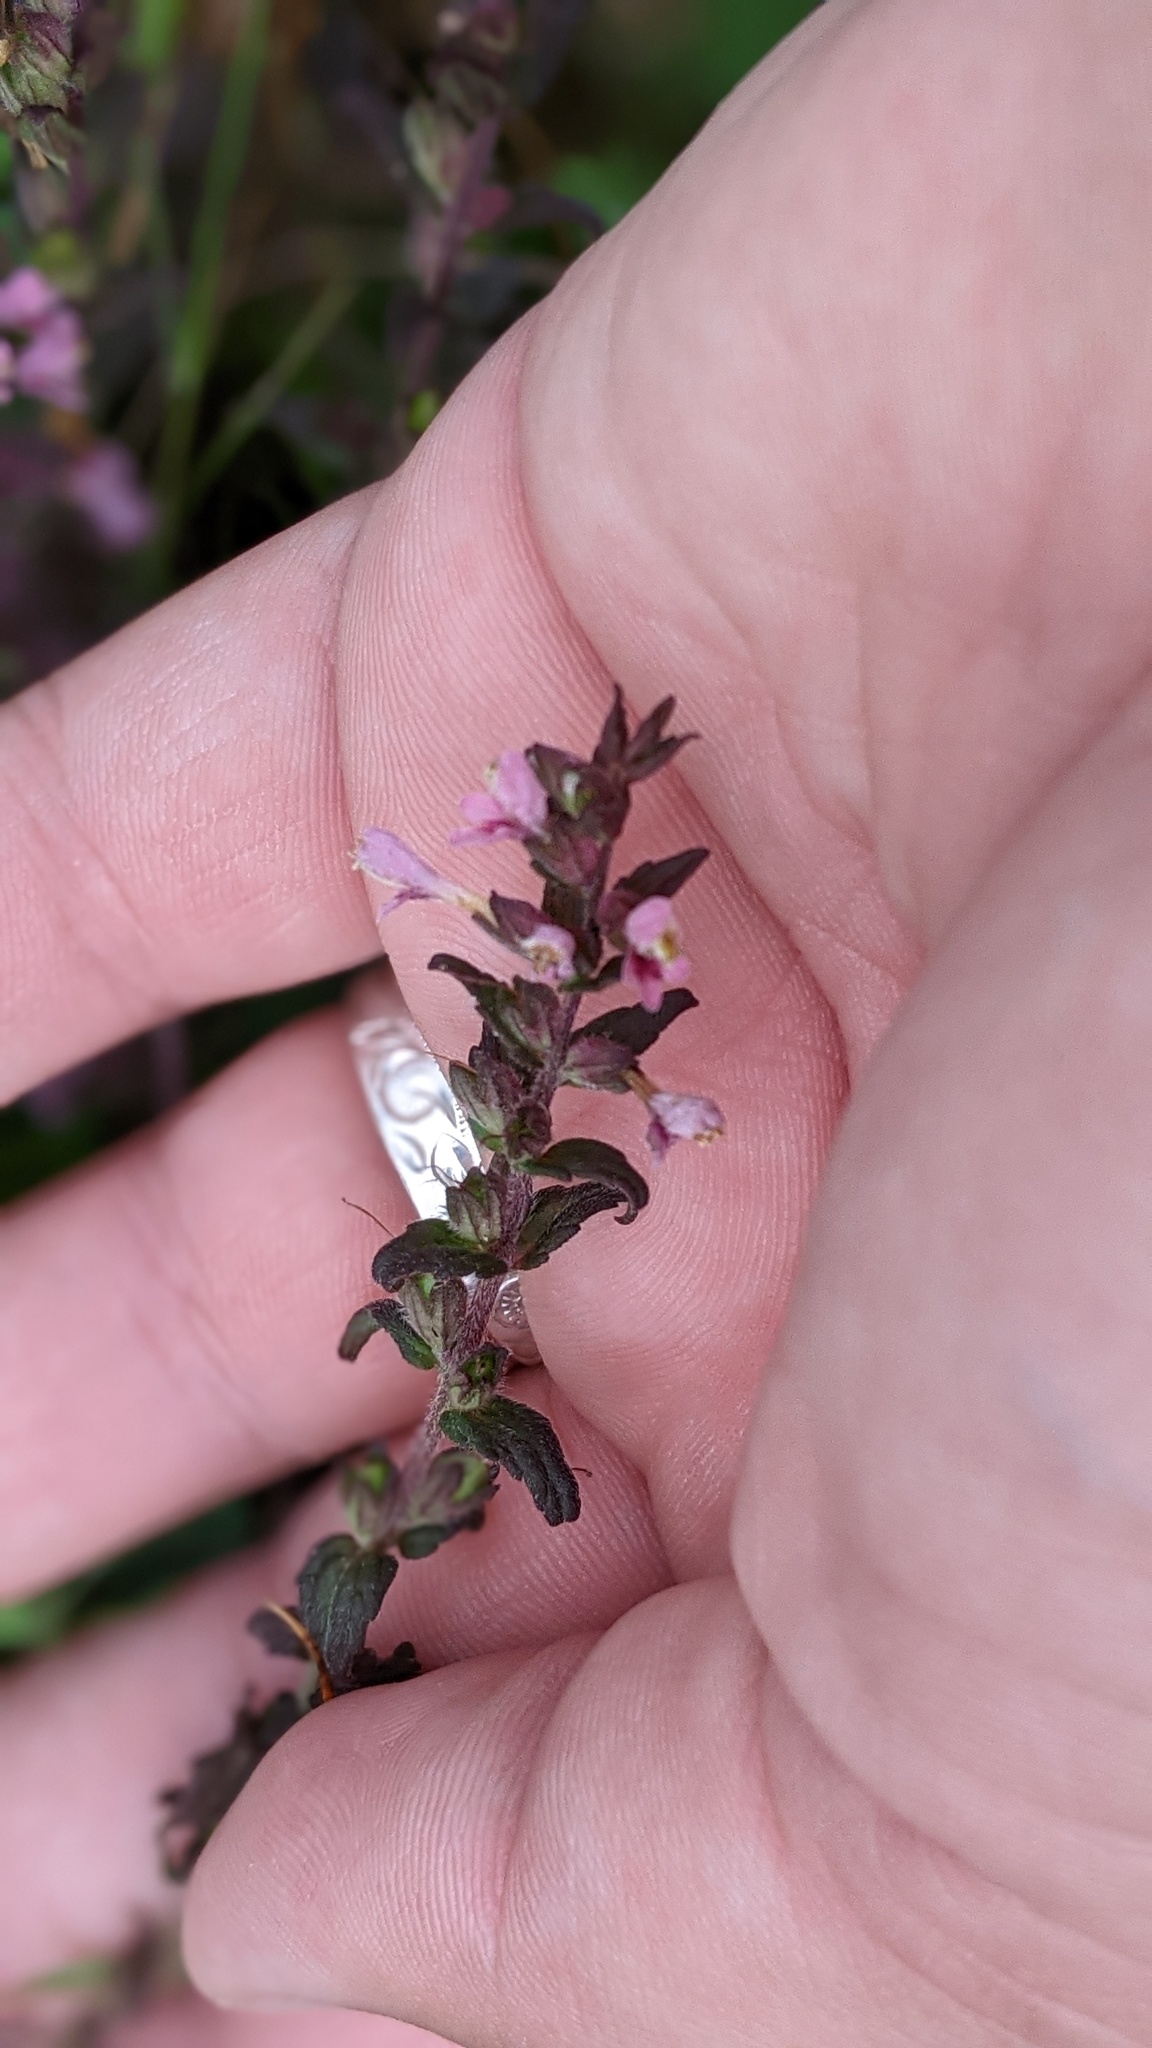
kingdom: Plantae
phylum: Tracheophyta
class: Magnoliopsida
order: Lamiales
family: Orobanchaceae
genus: Odontites
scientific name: Odontites vulgaris
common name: Broomrape
